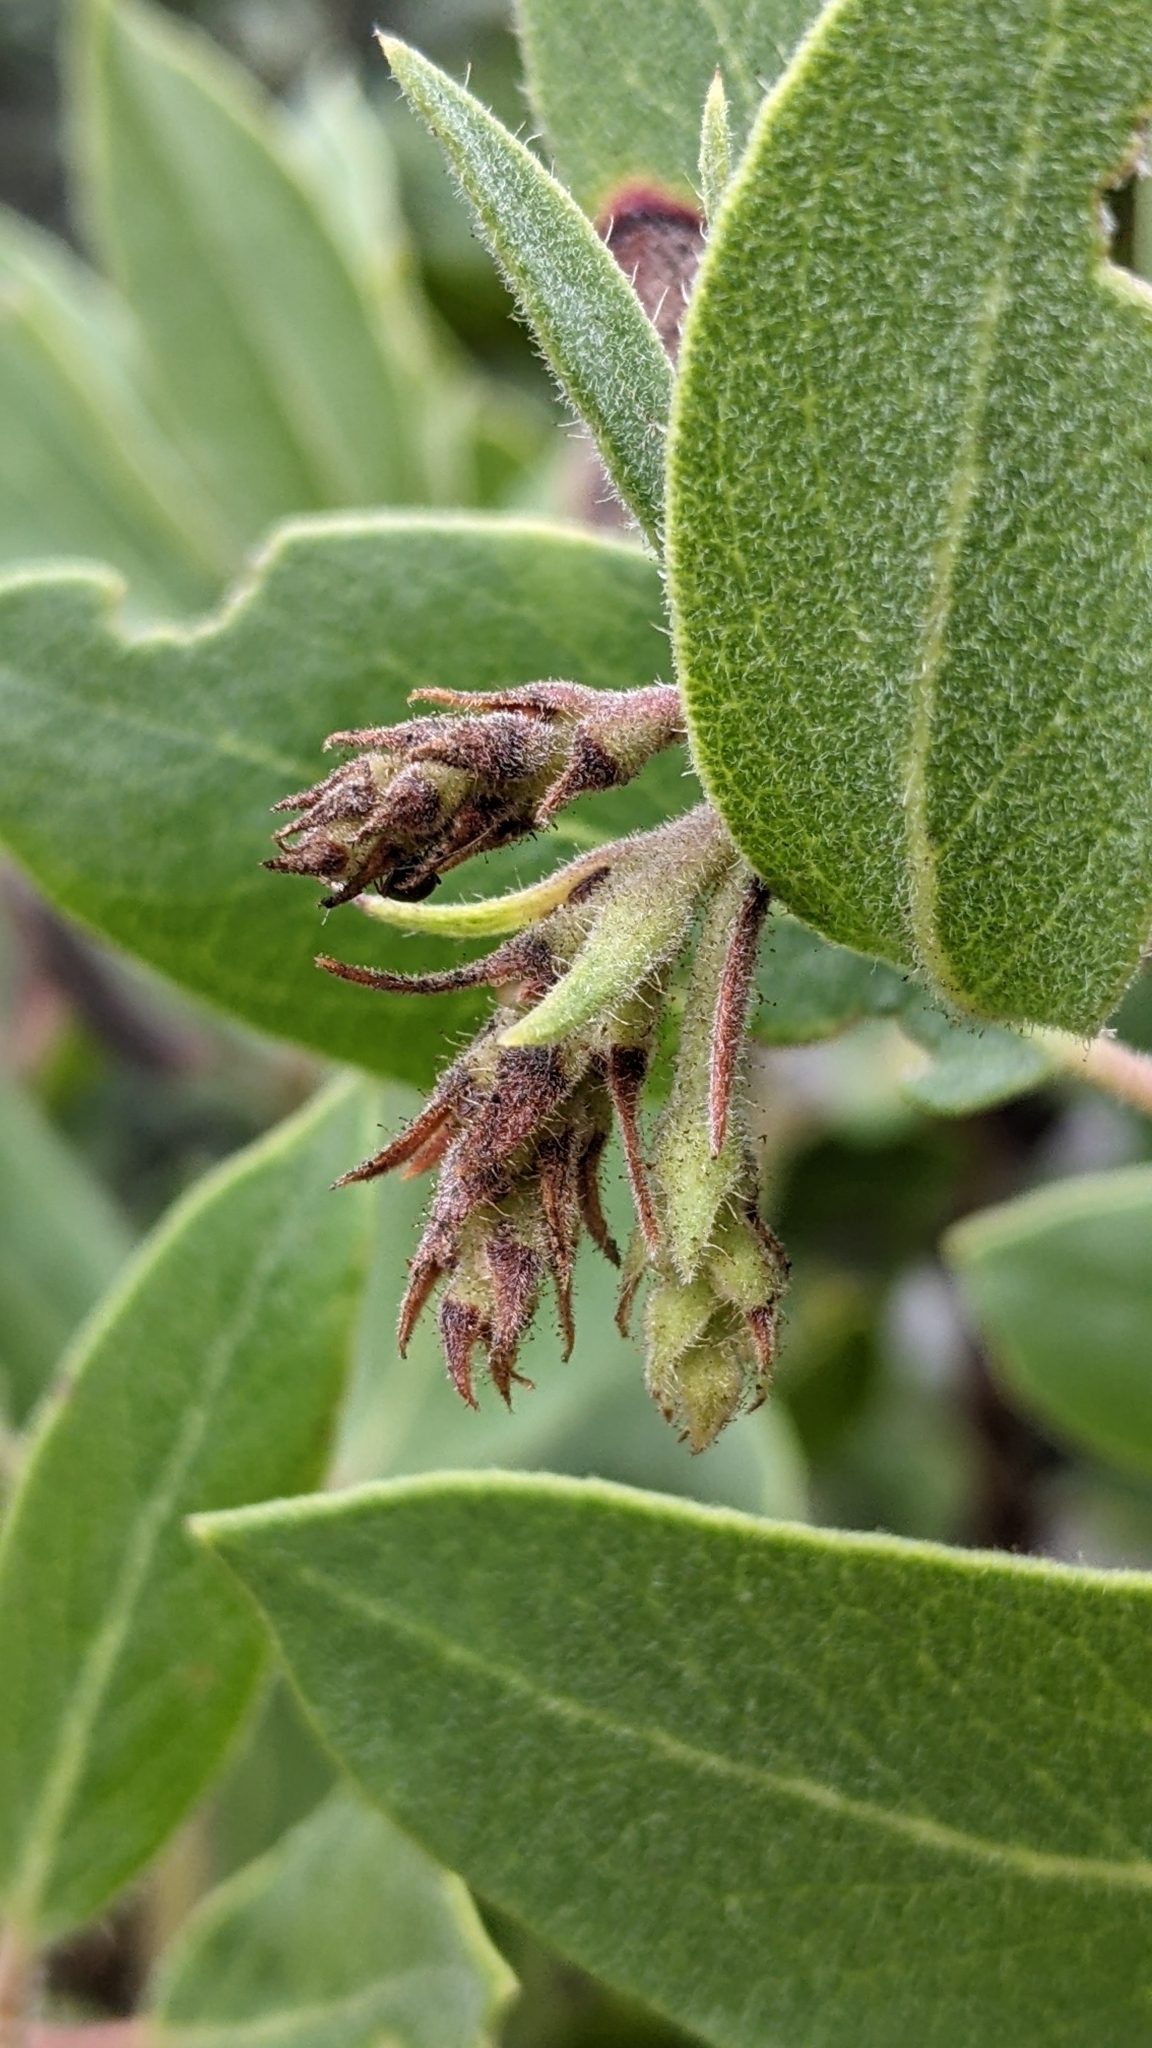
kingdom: Plantae
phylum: Tracheophyta
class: Magnoliopsida
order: Ericales
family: Ericaceae
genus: Arctostaphylos
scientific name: Arctostaphylos glandulosa
